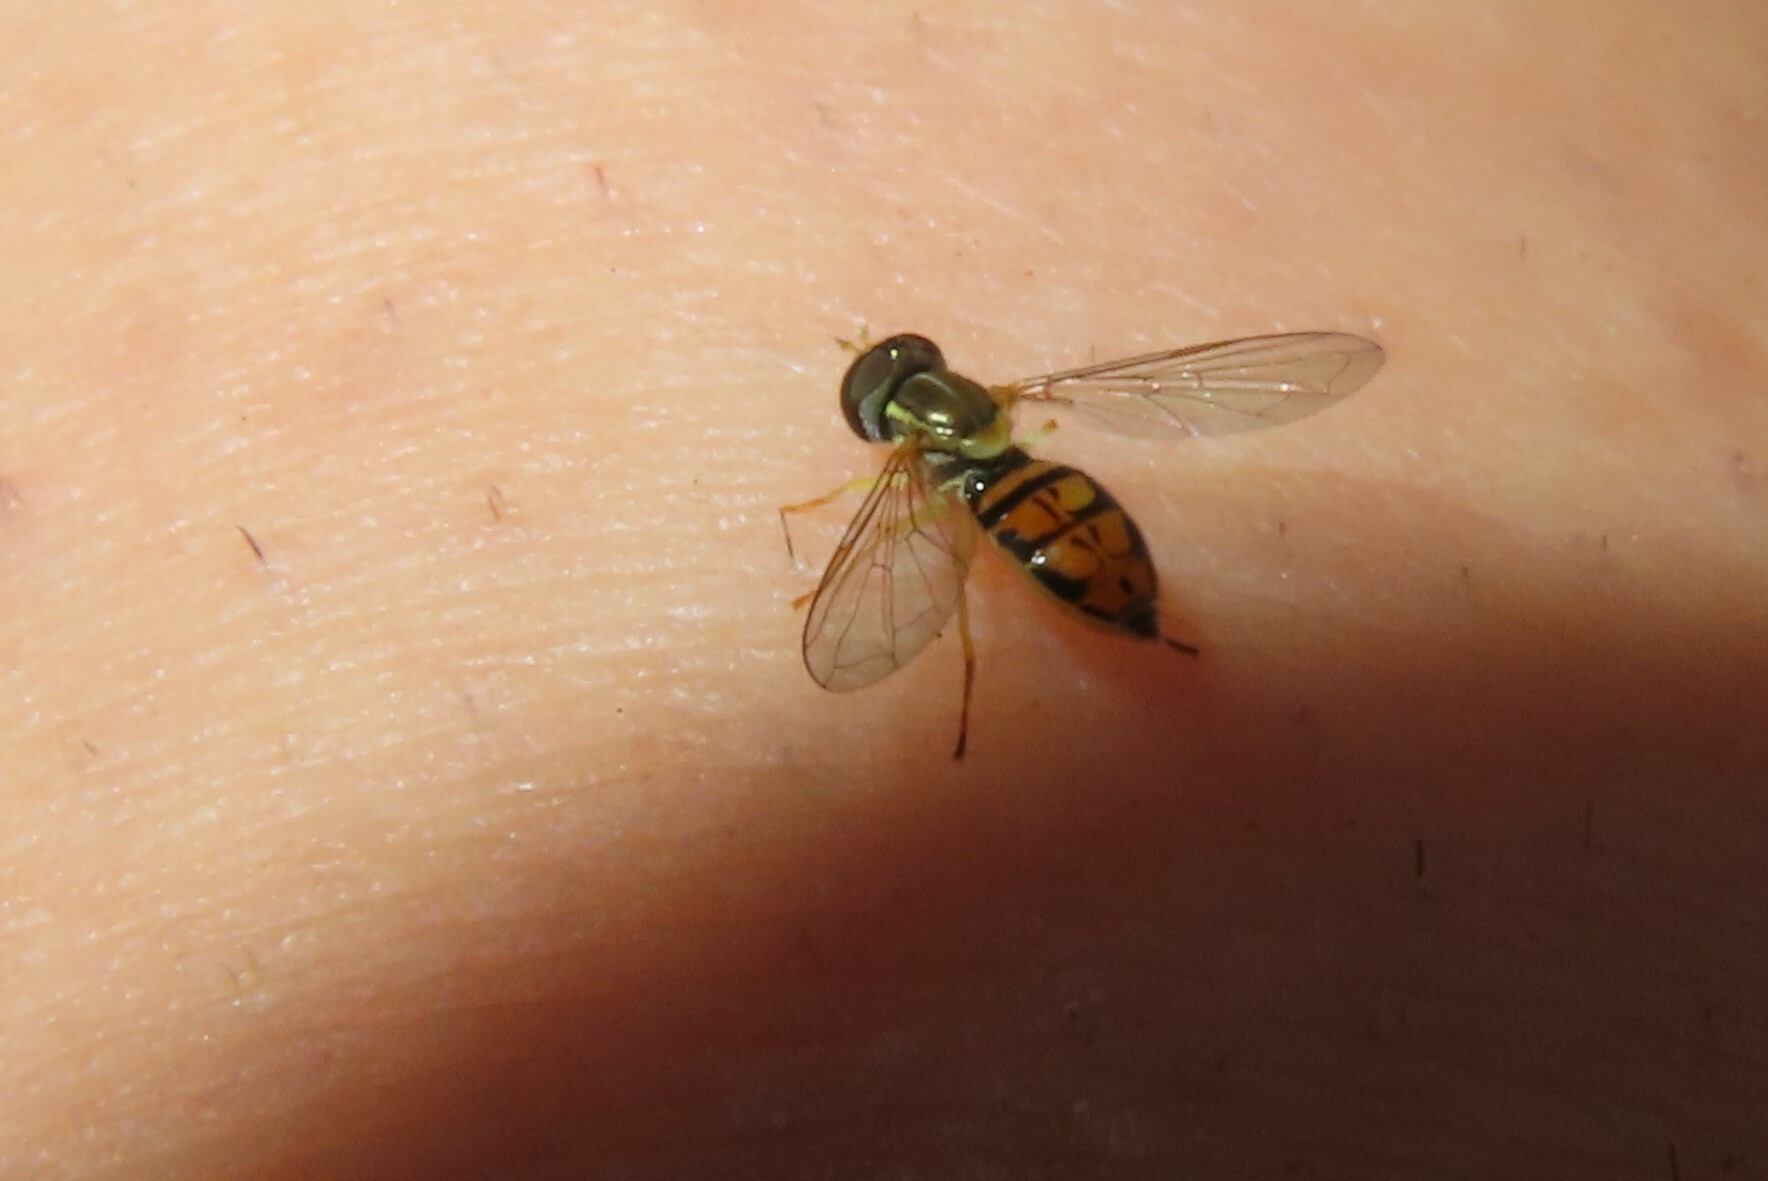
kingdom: Animalia
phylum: Arthropoda
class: Insecta
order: Diptera
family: Syrphidae
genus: Toxomerus
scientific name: Toxomerus marginatus
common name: Syrphid fly
